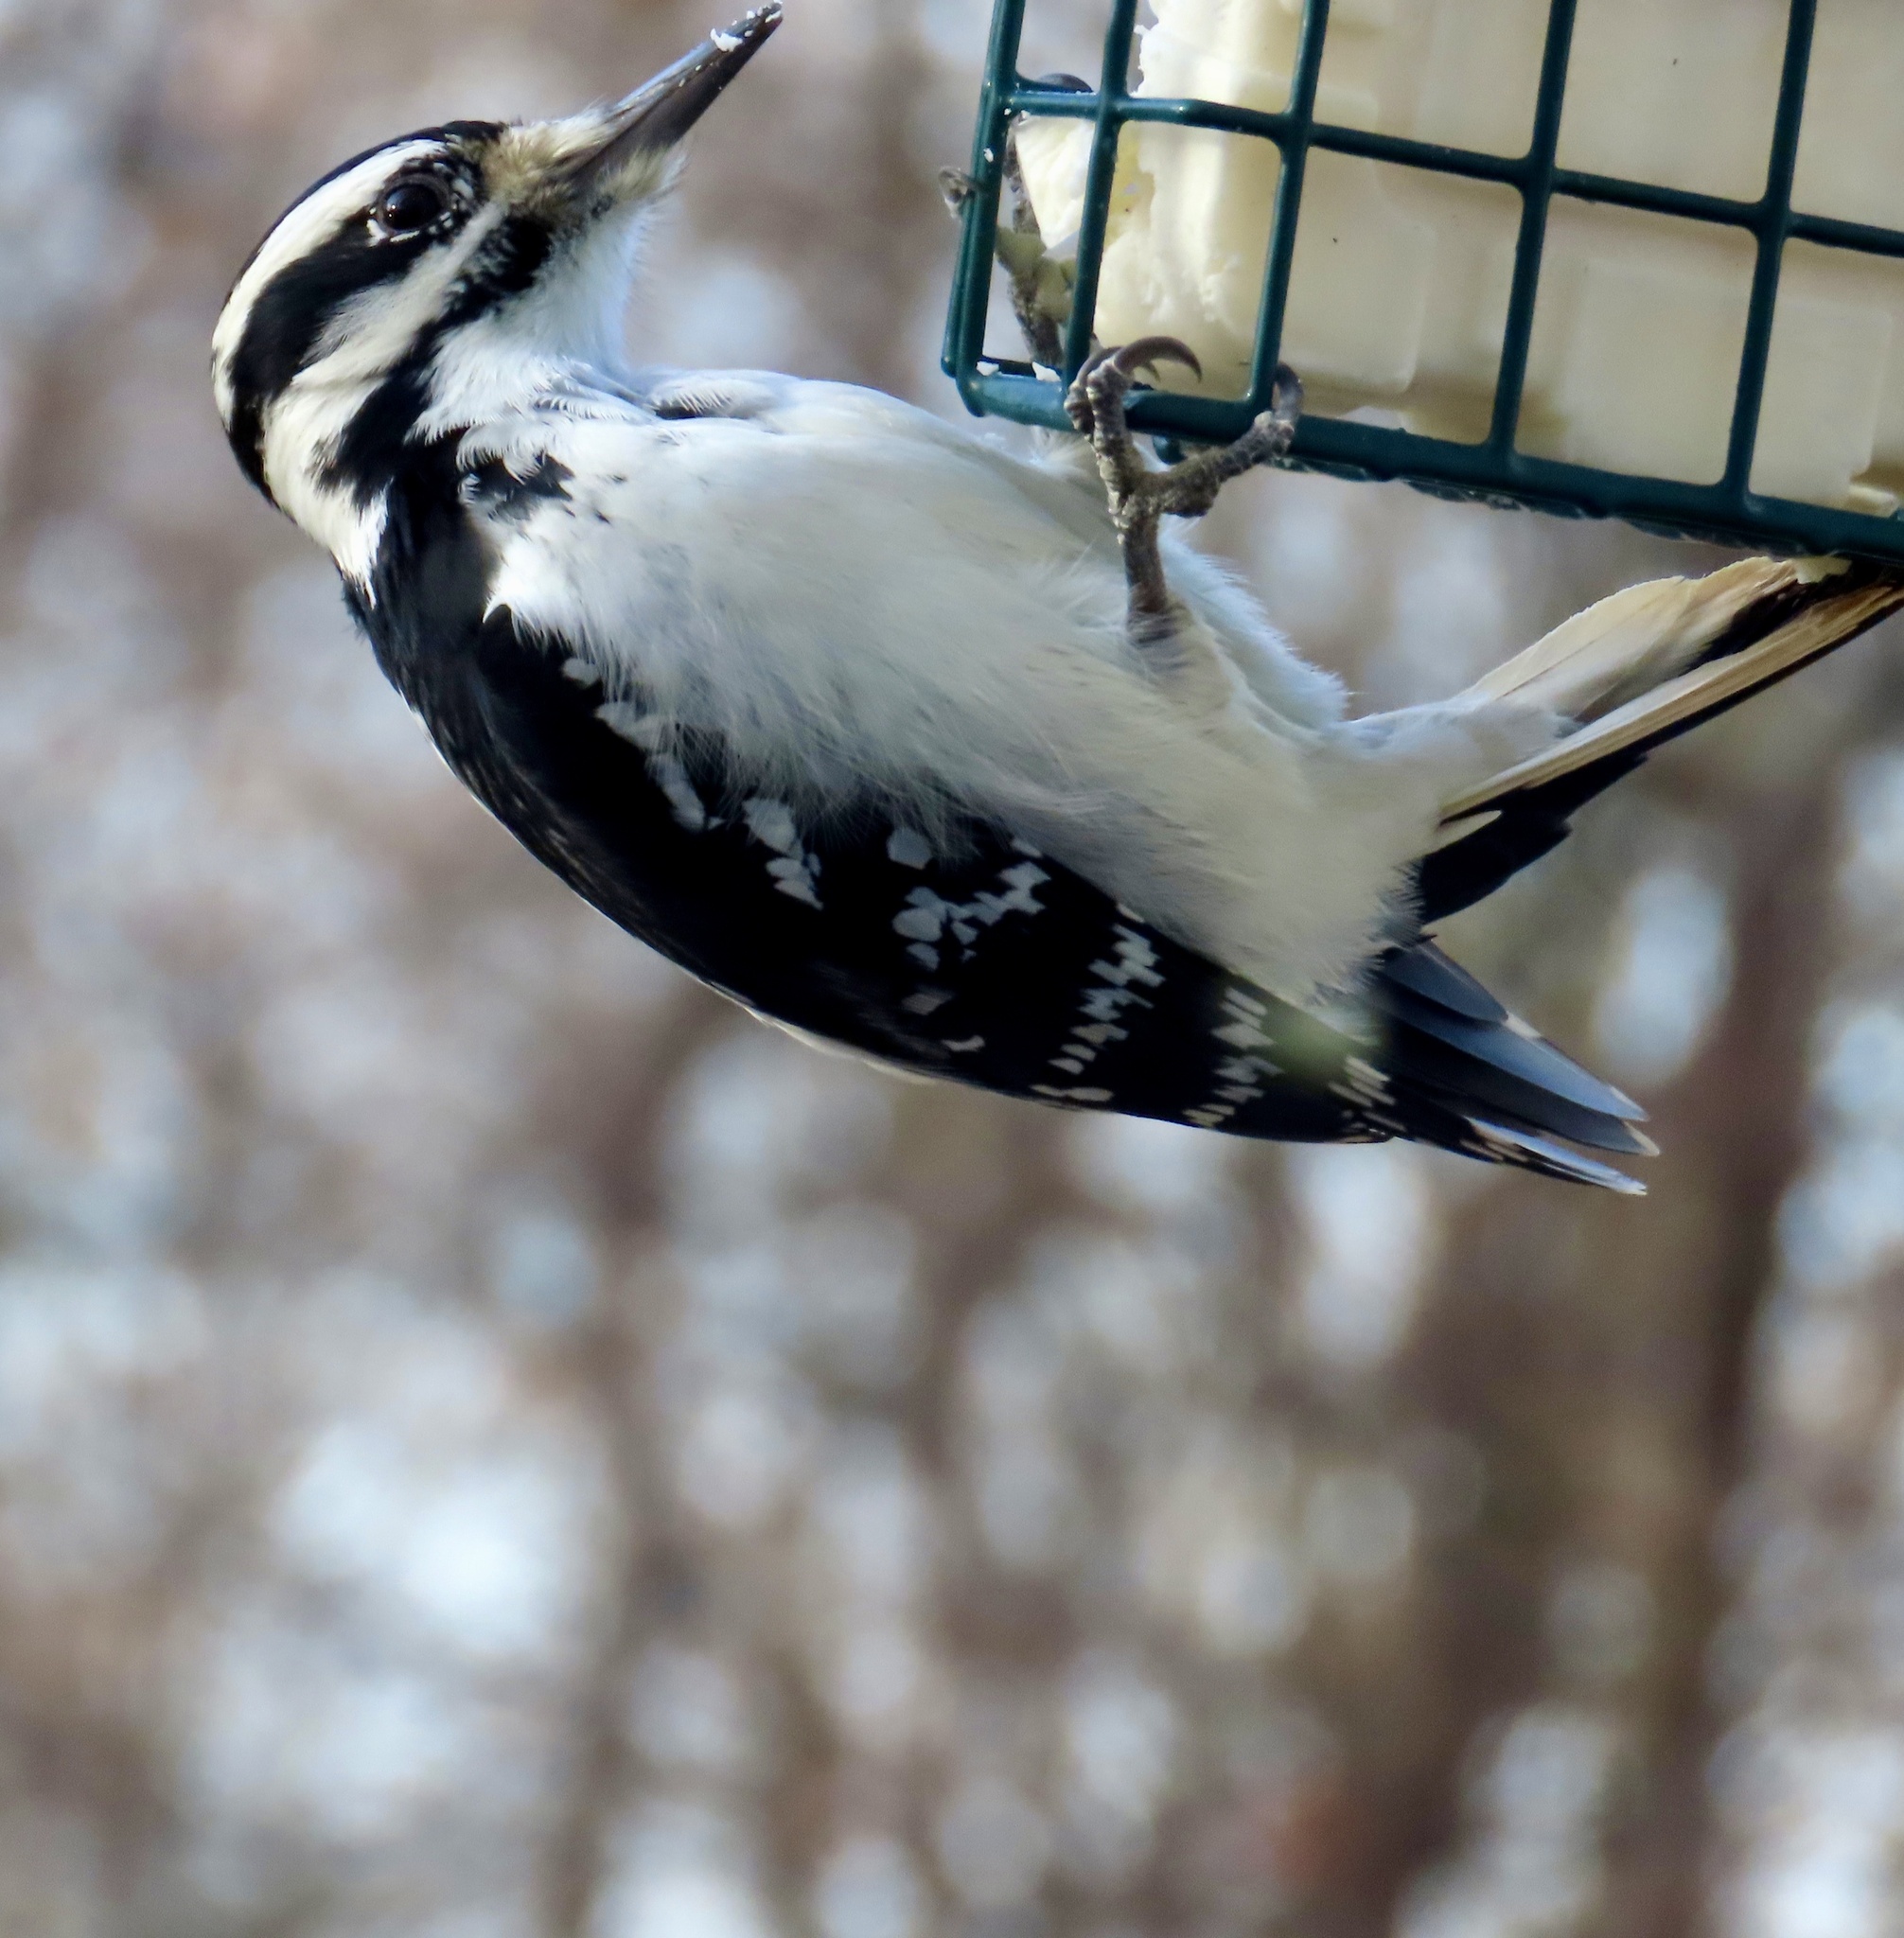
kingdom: Animalia
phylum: Chordata
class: Aves
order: Piciformes
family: Picidae
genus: Leuconotopicus
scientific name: Leuconotopicus villosus
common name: Hairy woodpecker
